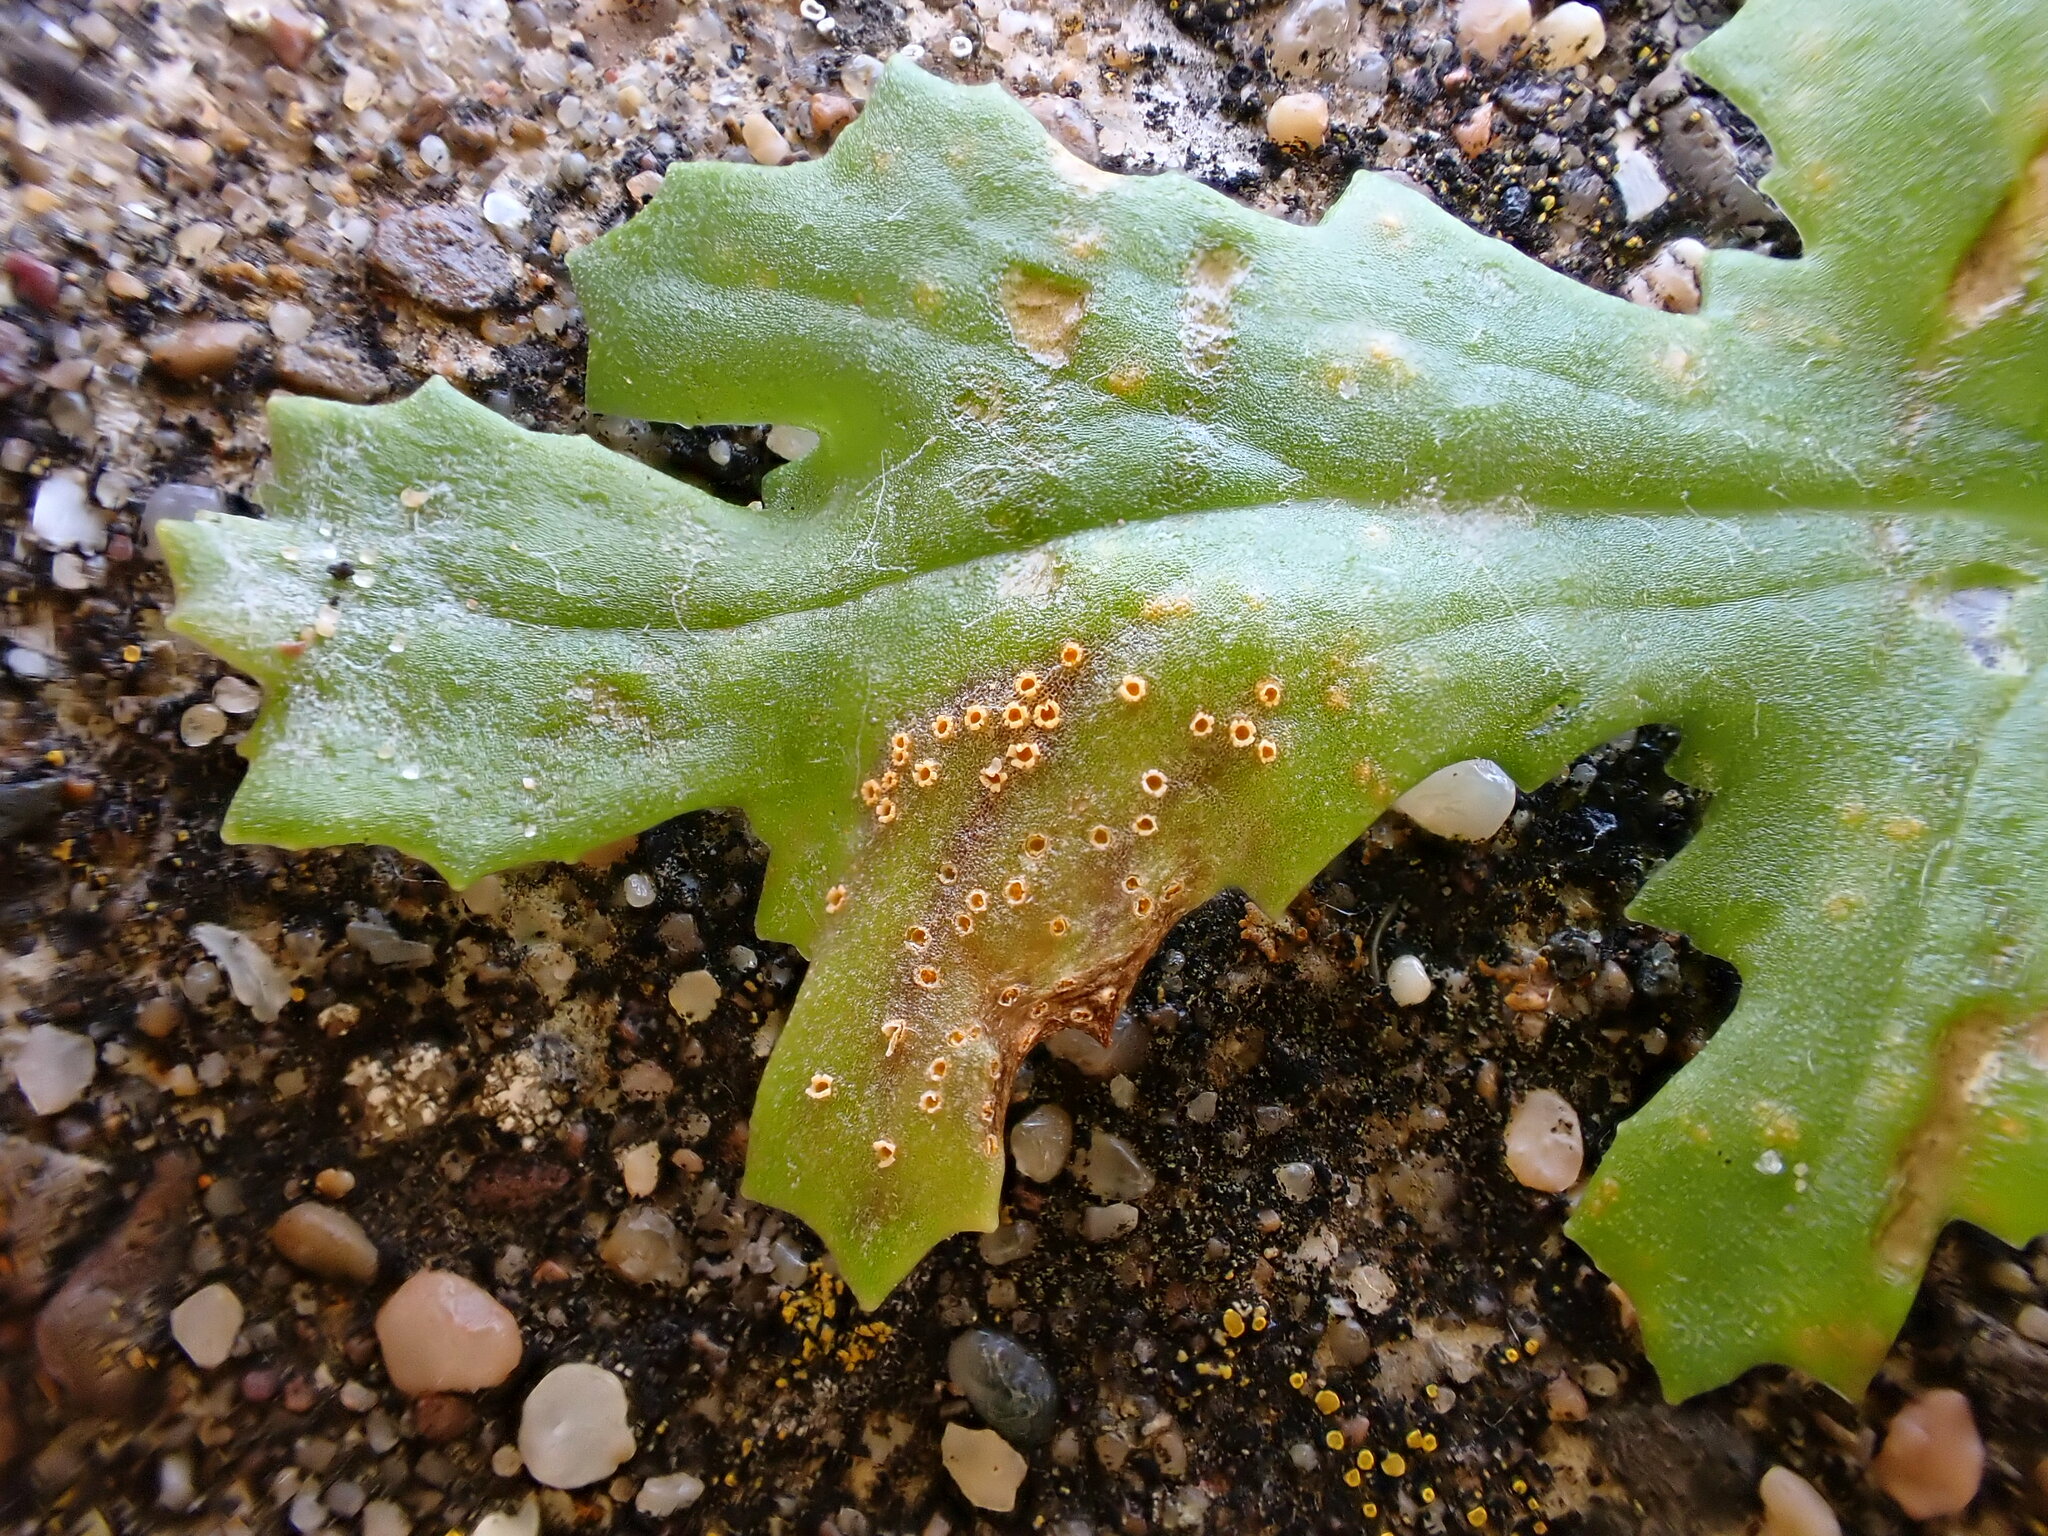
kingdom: Fungi
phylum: Basidiomycota
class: Pucciniomycetes
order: Pucciniales
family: Pucciniaceae
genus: Puccinia
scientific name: Puccinia lagenophorae
